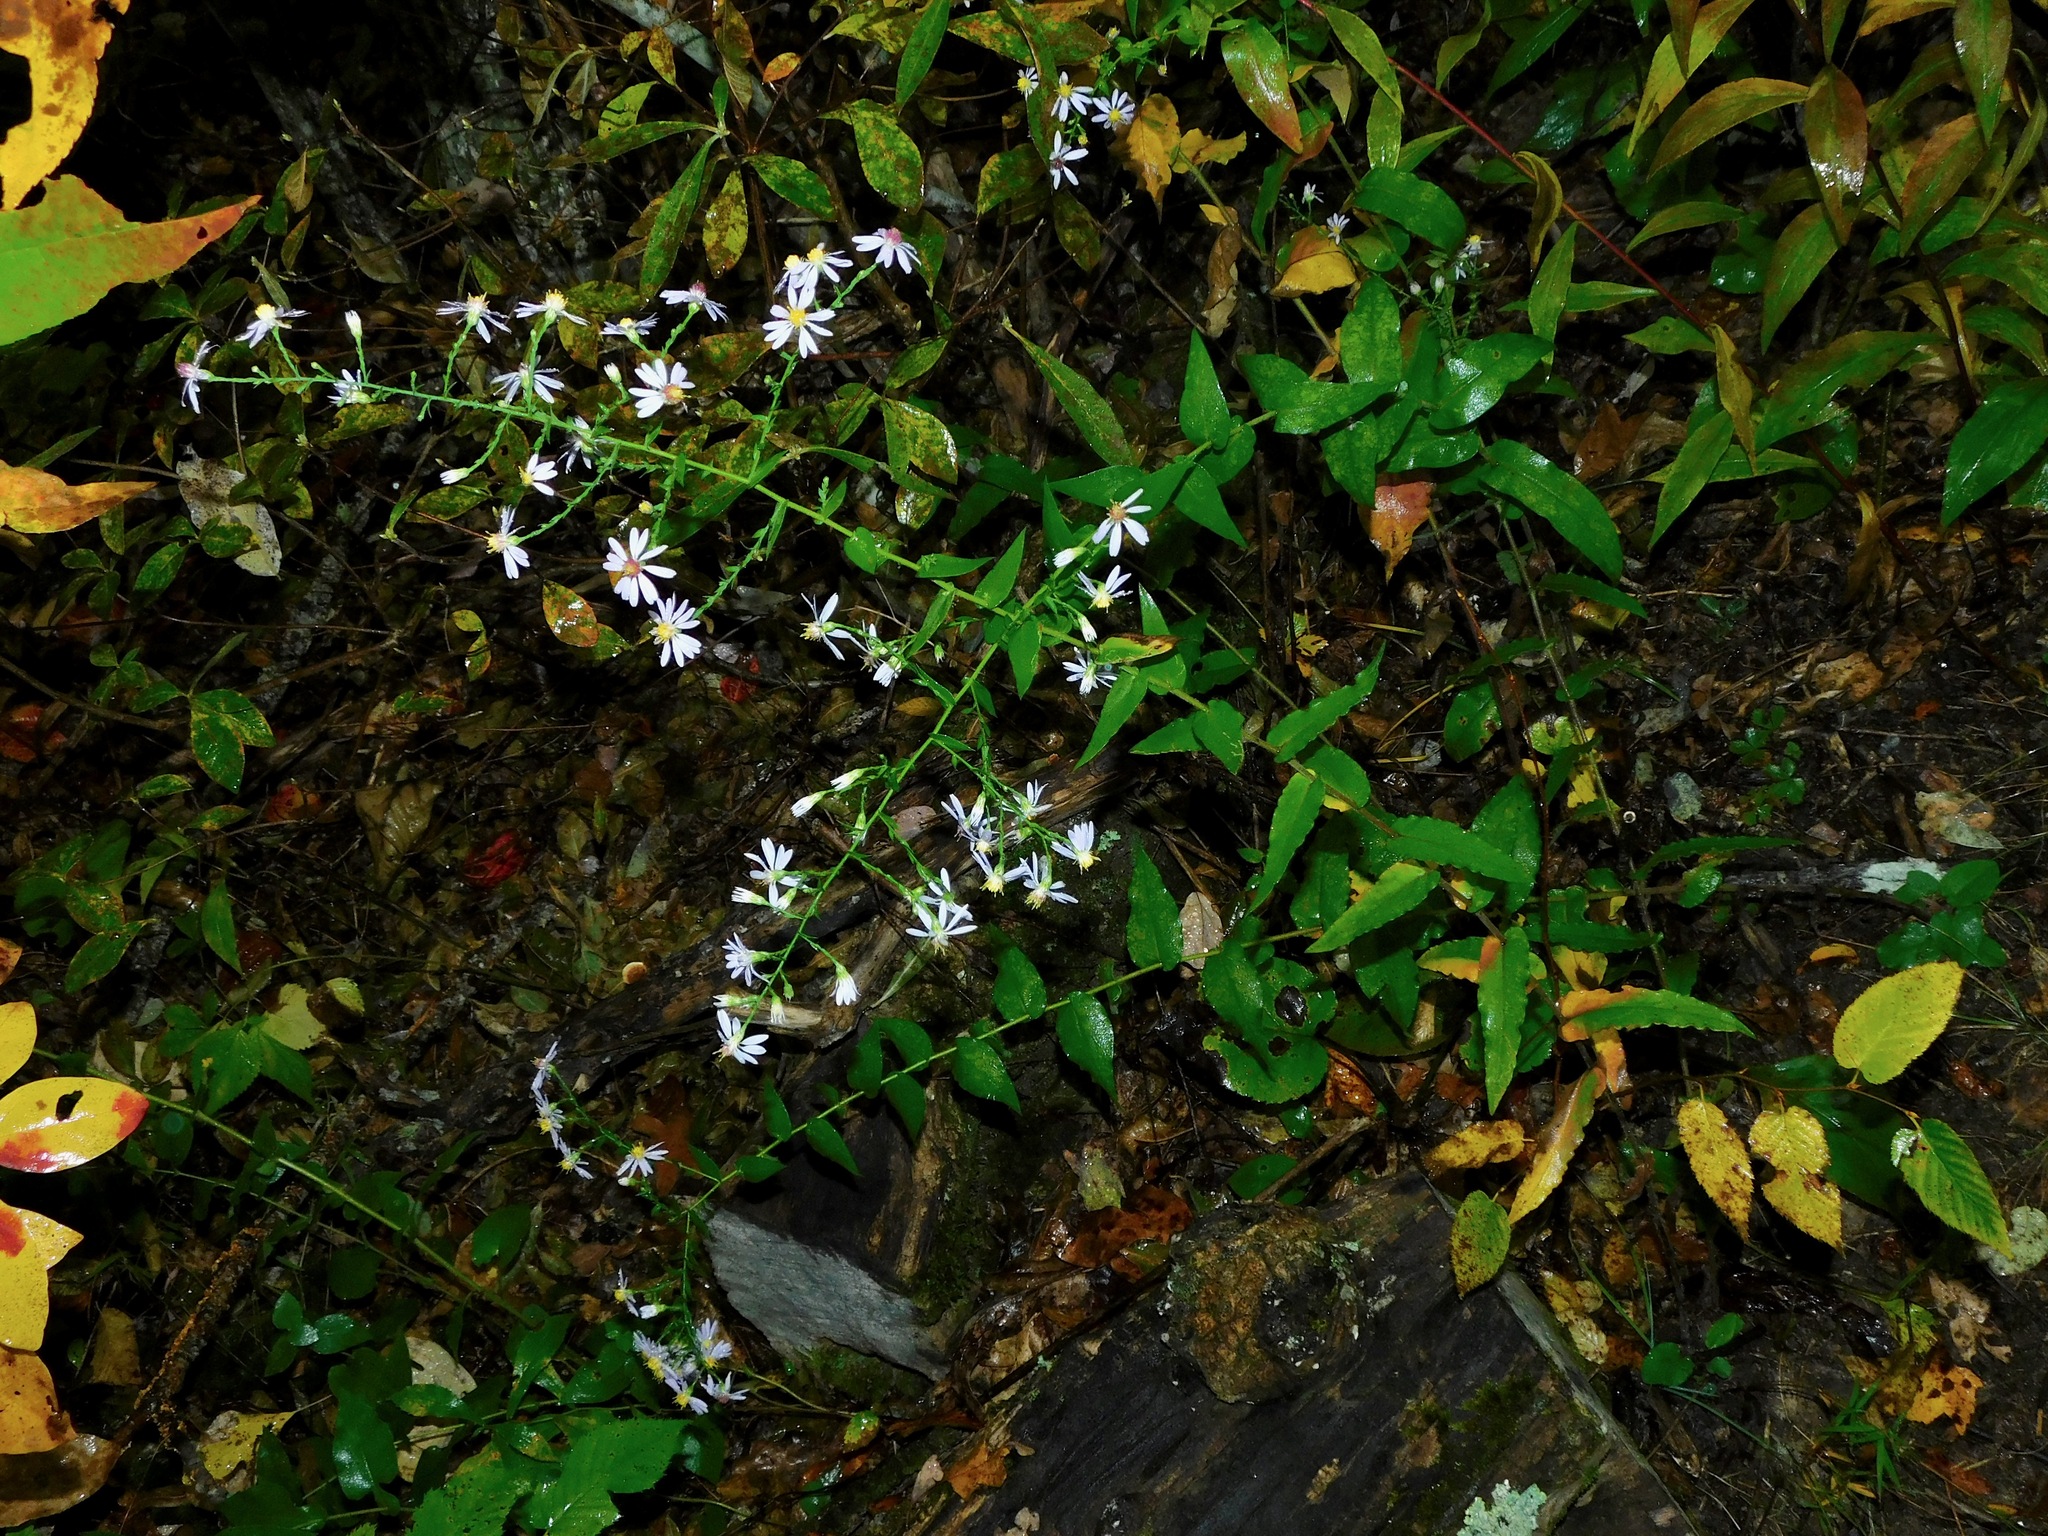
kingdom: Plantae
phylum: Tracheophyta
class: Magnoliopsida
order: Asterales
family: Asteraceae
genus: Symphyotrichum
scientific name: Symphyotrichum undulatum
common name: Clasping heart-leaf aster
